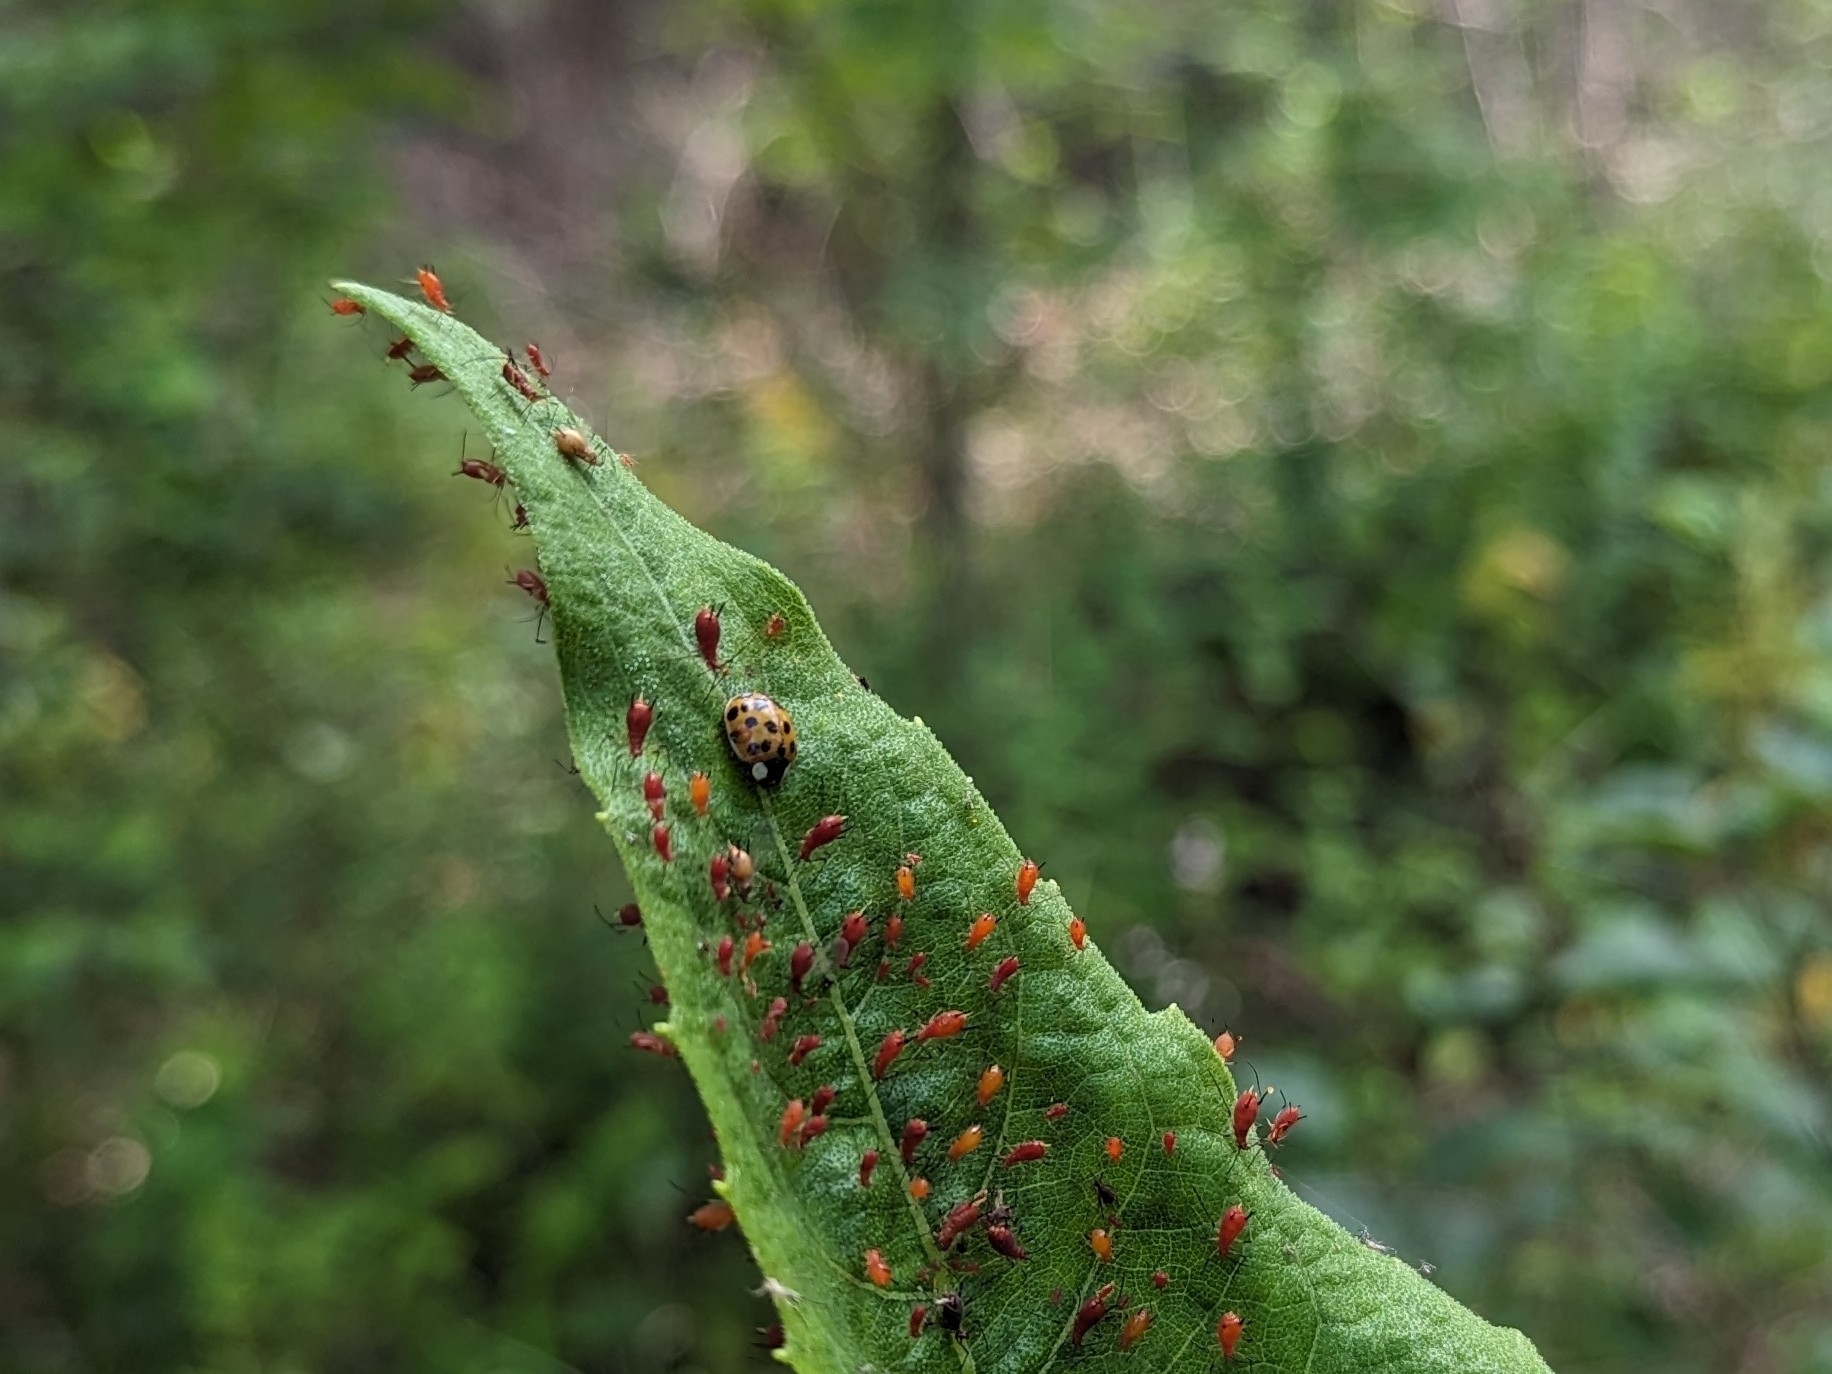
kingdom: Animalia
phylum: Arthropoda
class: Insecta
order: Coleoptera
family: Coccinellidae
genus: Harmonia
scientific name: Harmonia axyridis
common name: Harlequin ladybird
